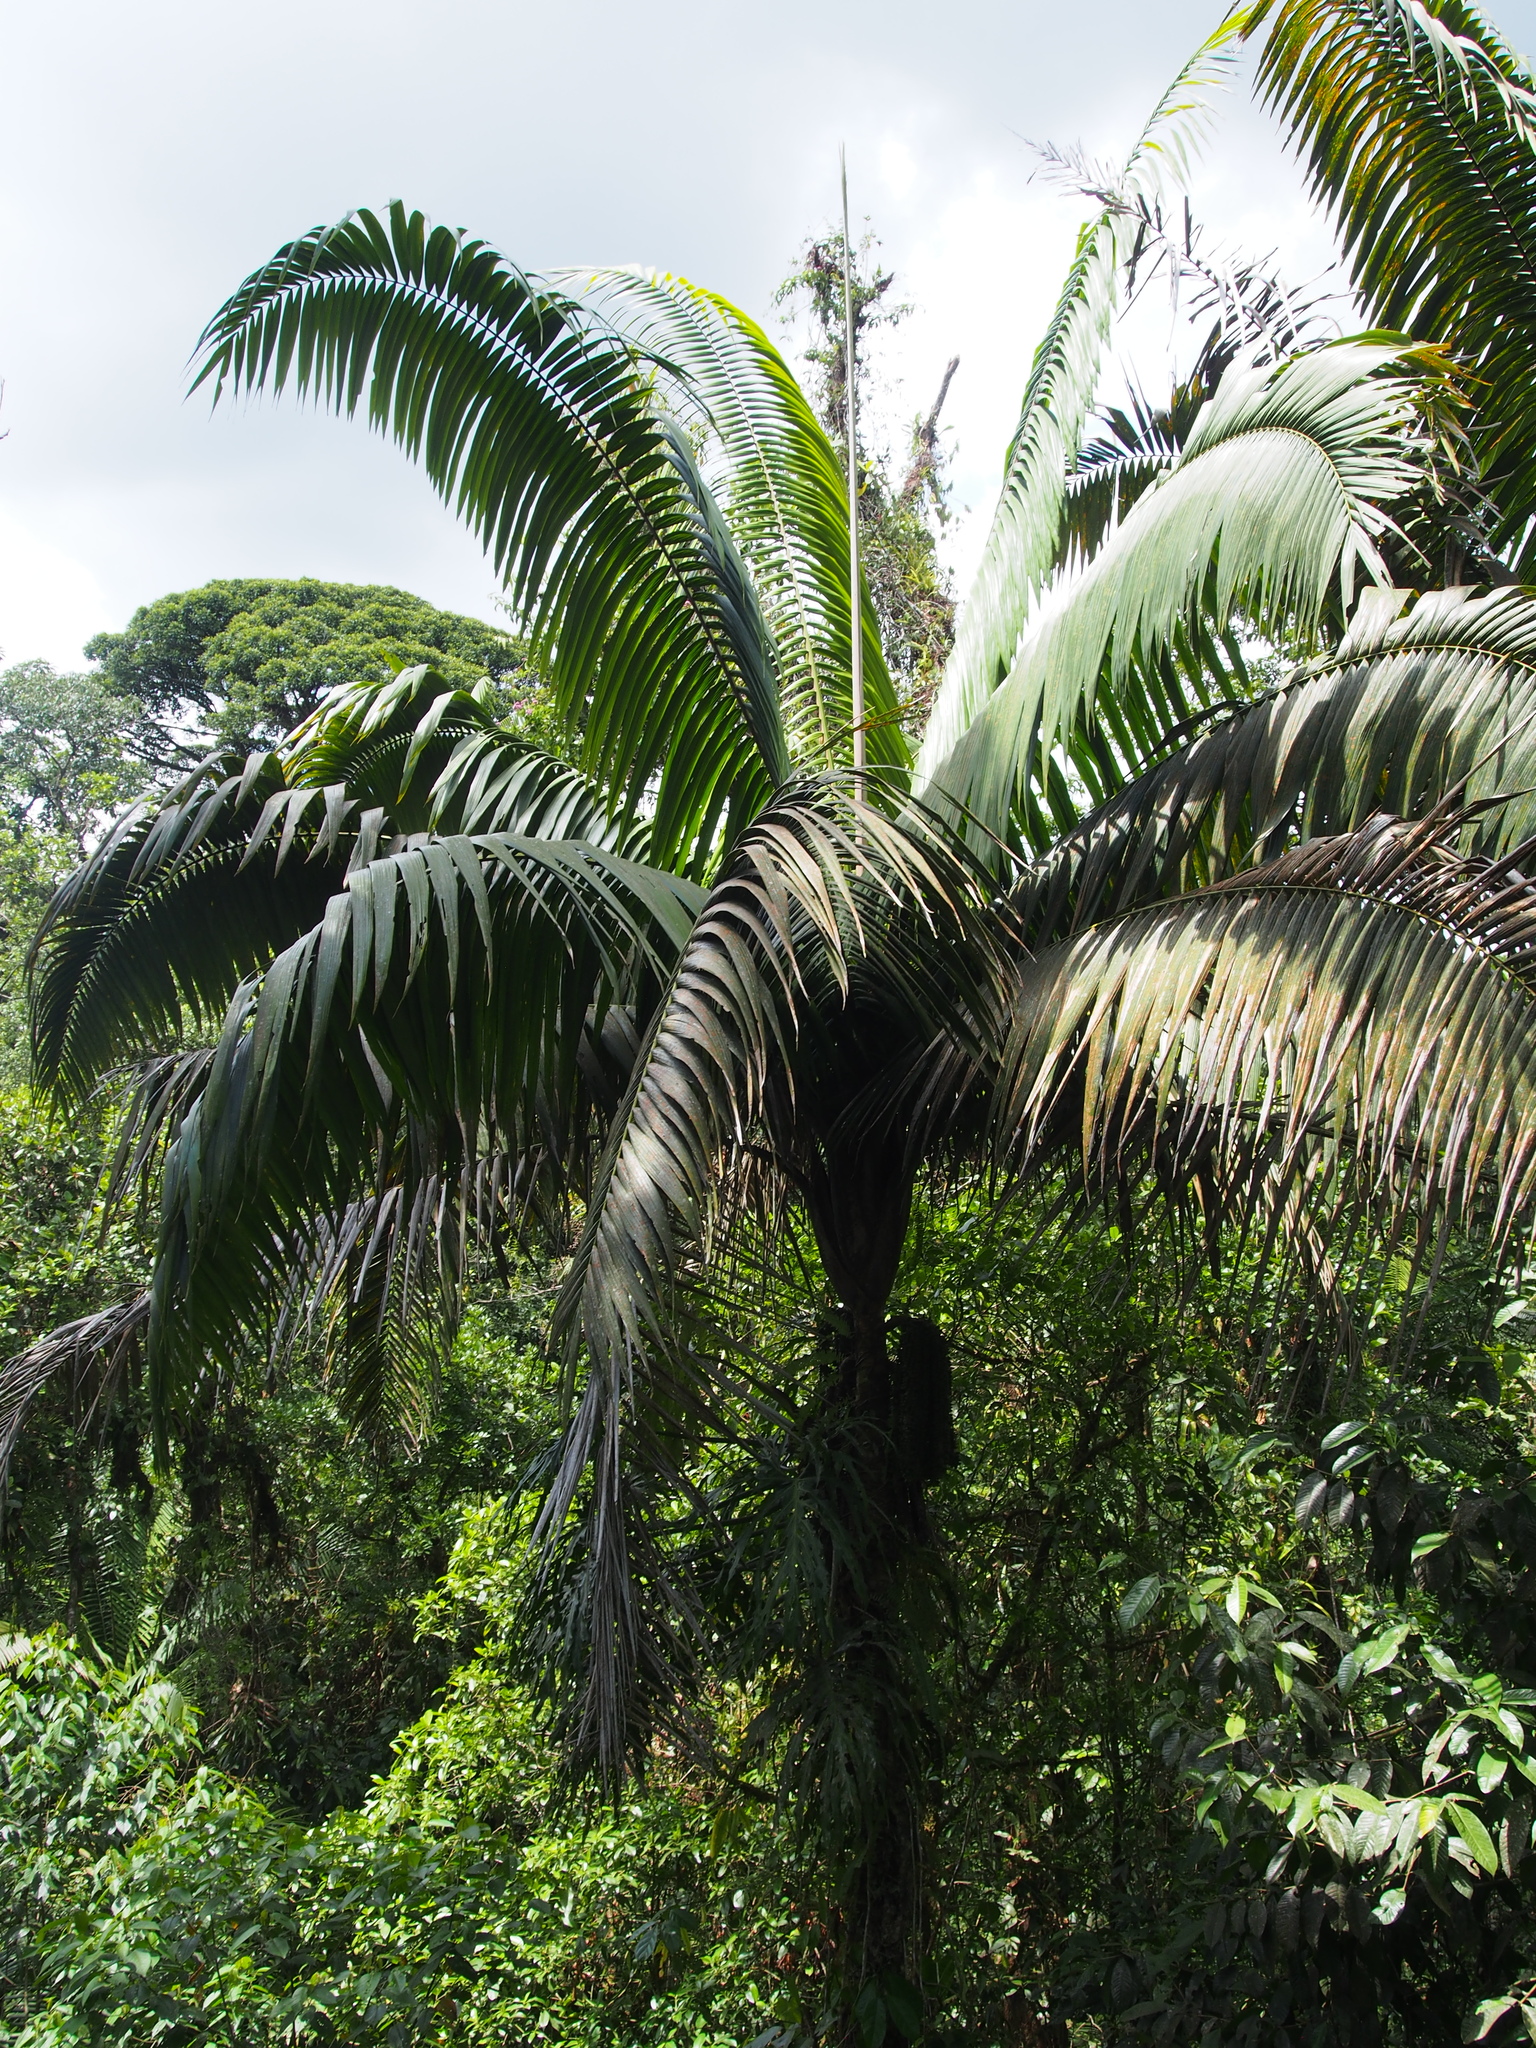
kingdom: Plantae
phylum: Tracheophyta
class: Liliopsida
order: Arecales
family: Arecaceae
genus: Welfia
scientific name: Welfia regia
